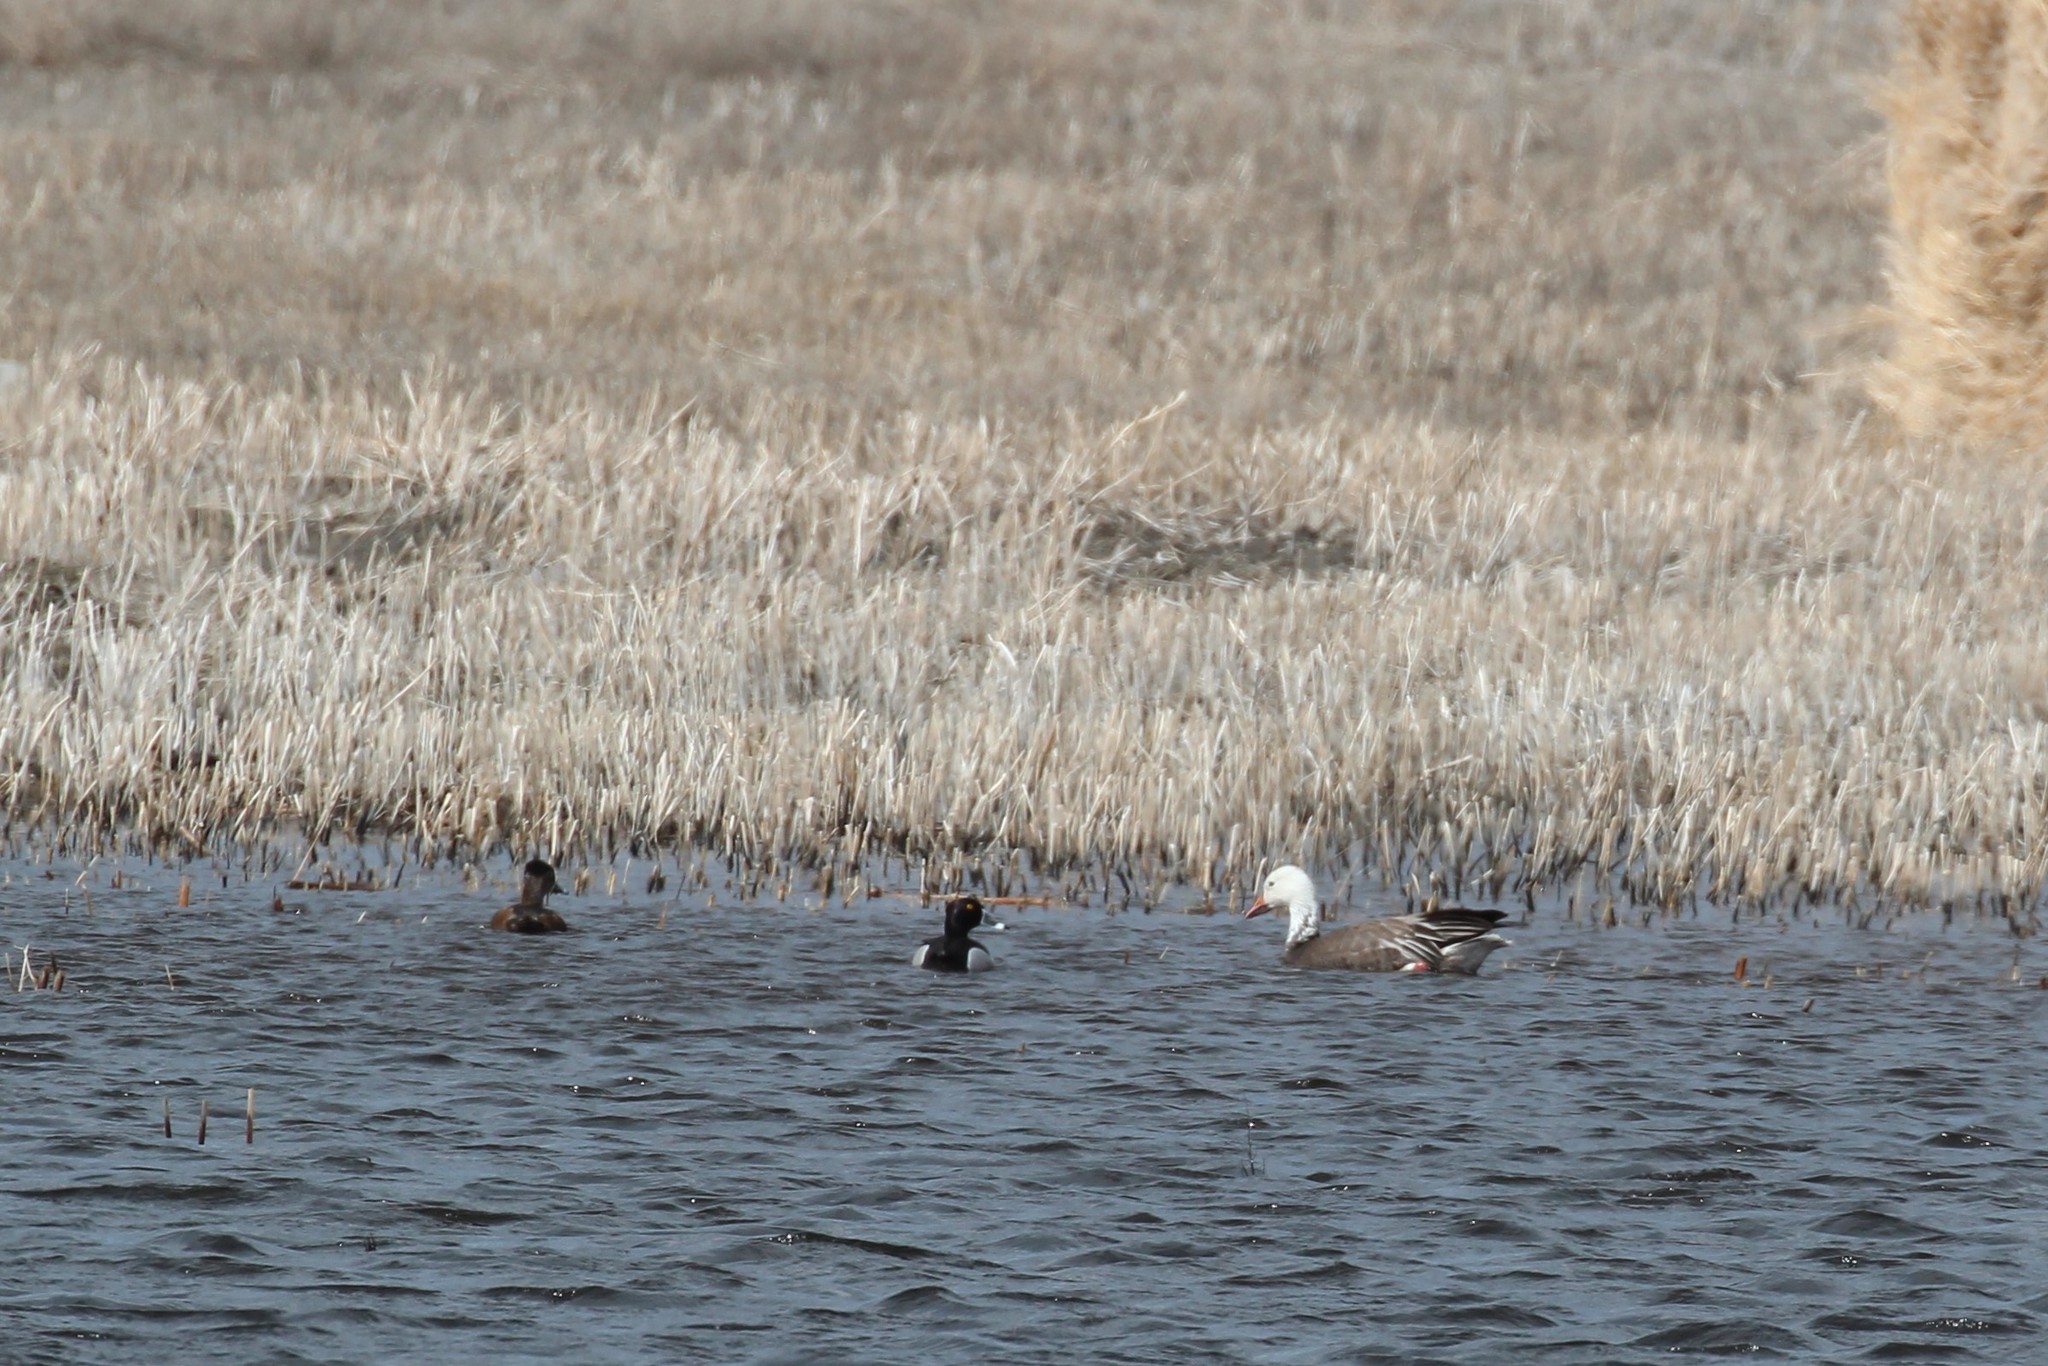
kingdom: Animalia
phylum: Chordata
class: Aves
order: Anseriformes
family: Anatidae
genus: Anser
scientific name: Anser caerulescens
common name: Snow goose
